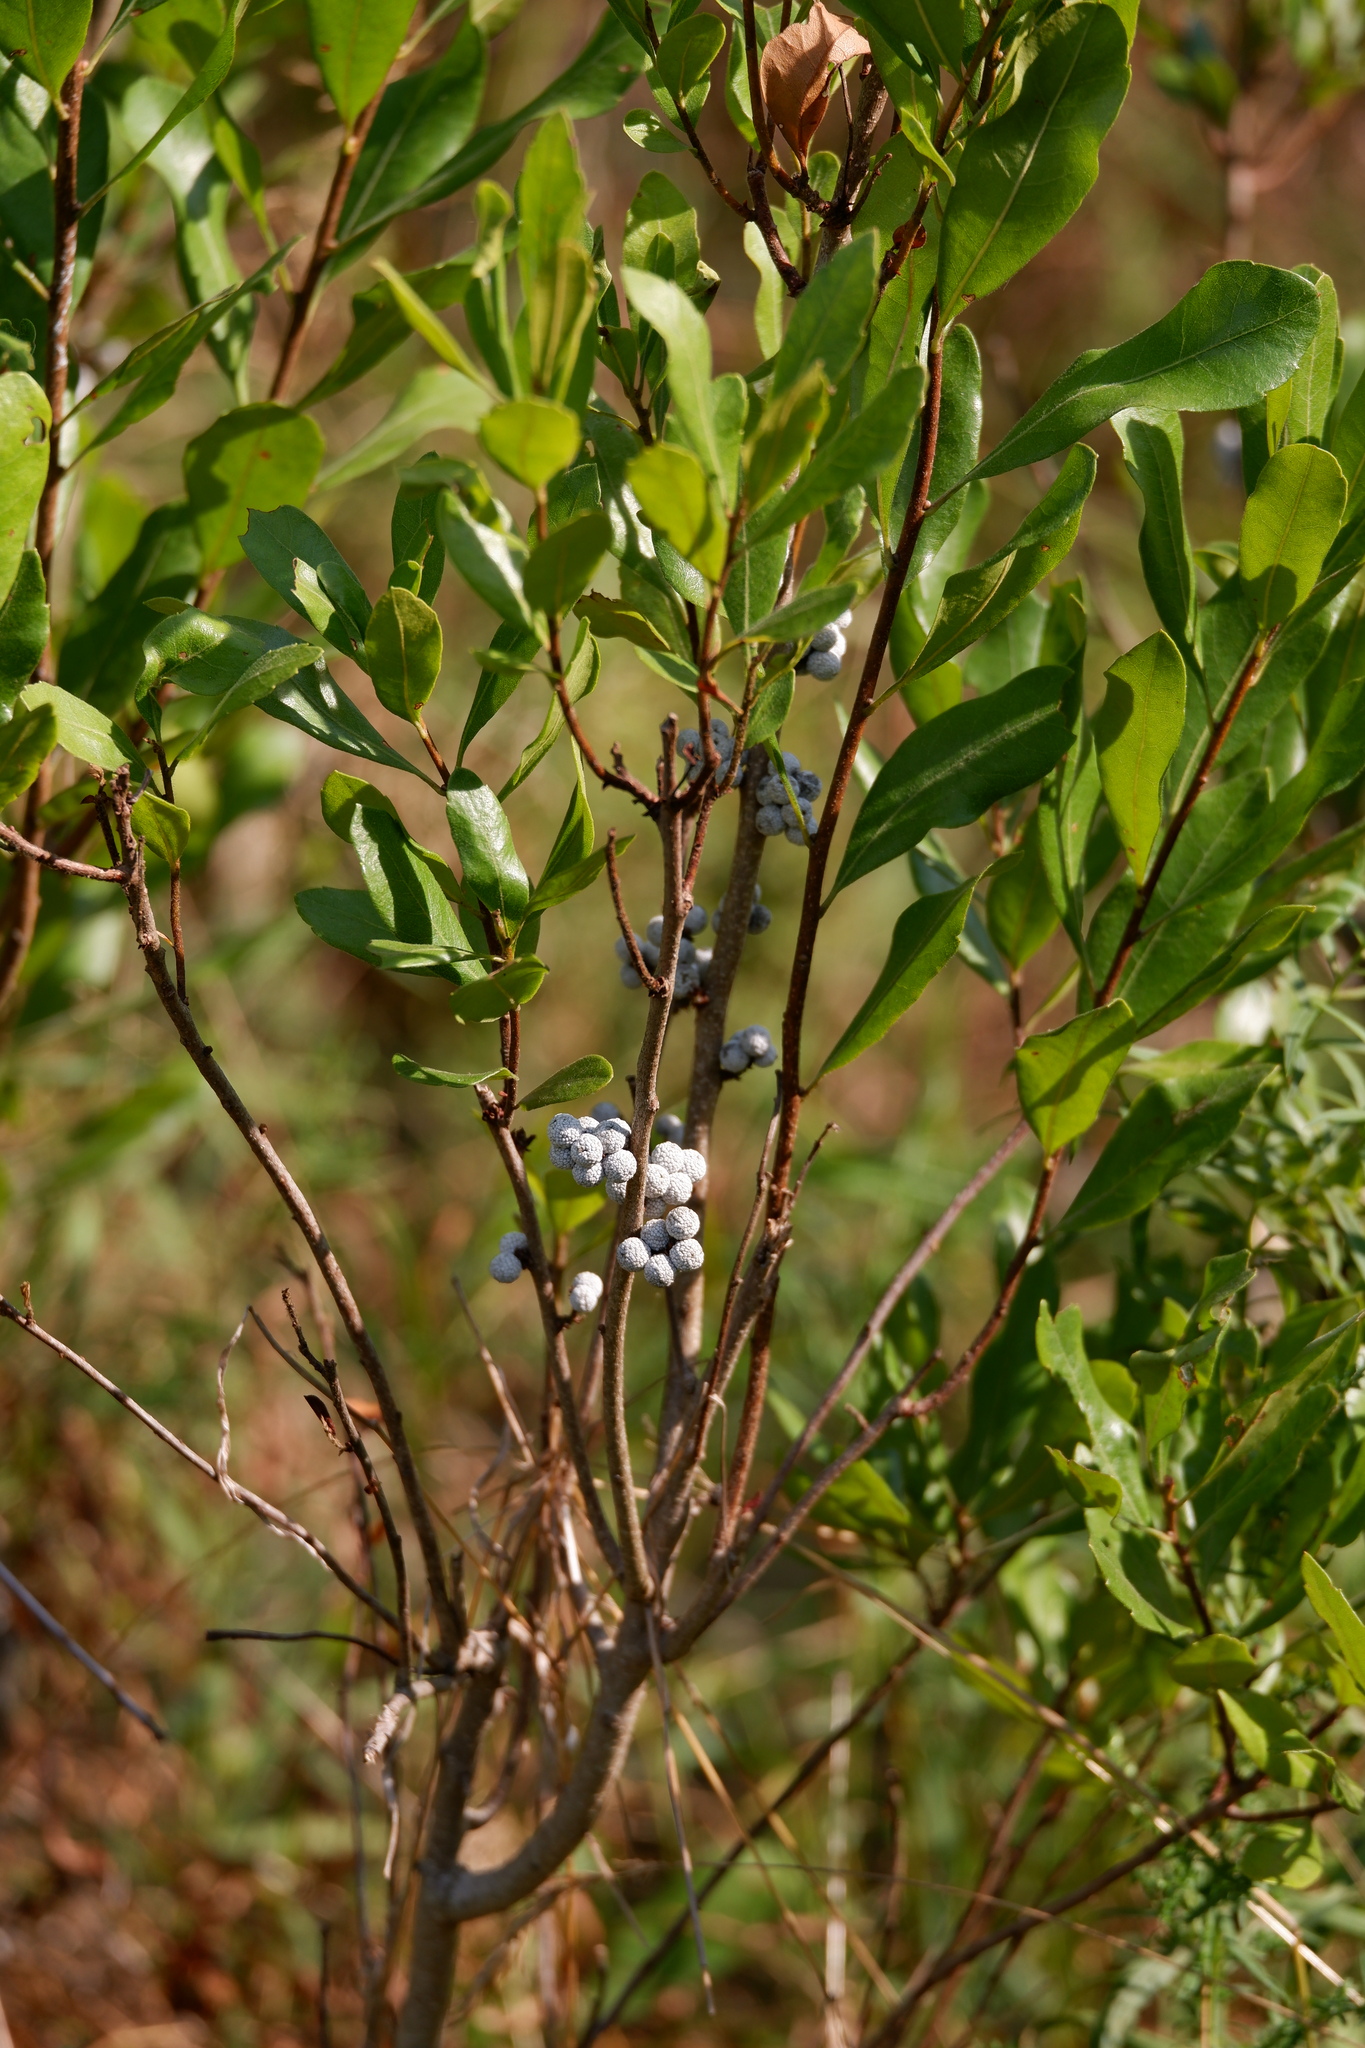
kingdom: Plantae
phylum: Tracheophyta
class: Magnoliopsida
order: Fagales
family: Myricaceae
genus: Morella
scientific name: Morella pensylvanica
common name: Northern bayberry
